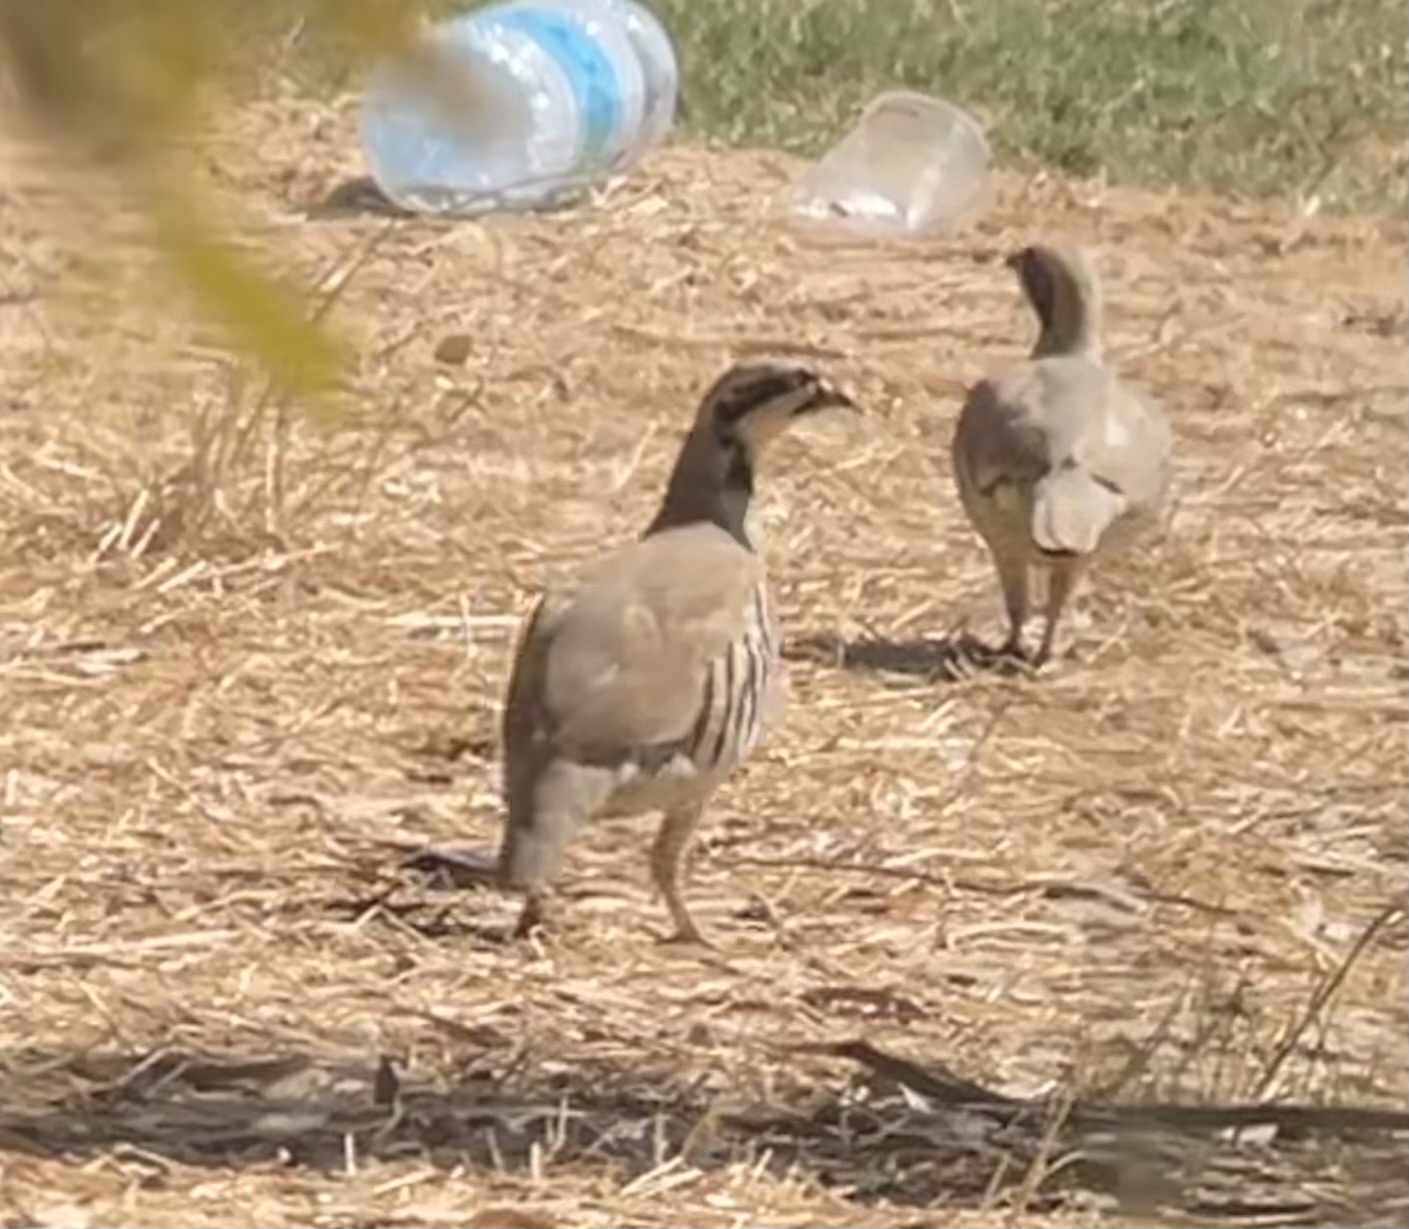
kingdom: Animalia
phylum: Chordata
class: Aves
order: Galliformes
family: Phasianidae
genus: Alectoris
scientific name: Alectoris chukar
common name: Chukar
